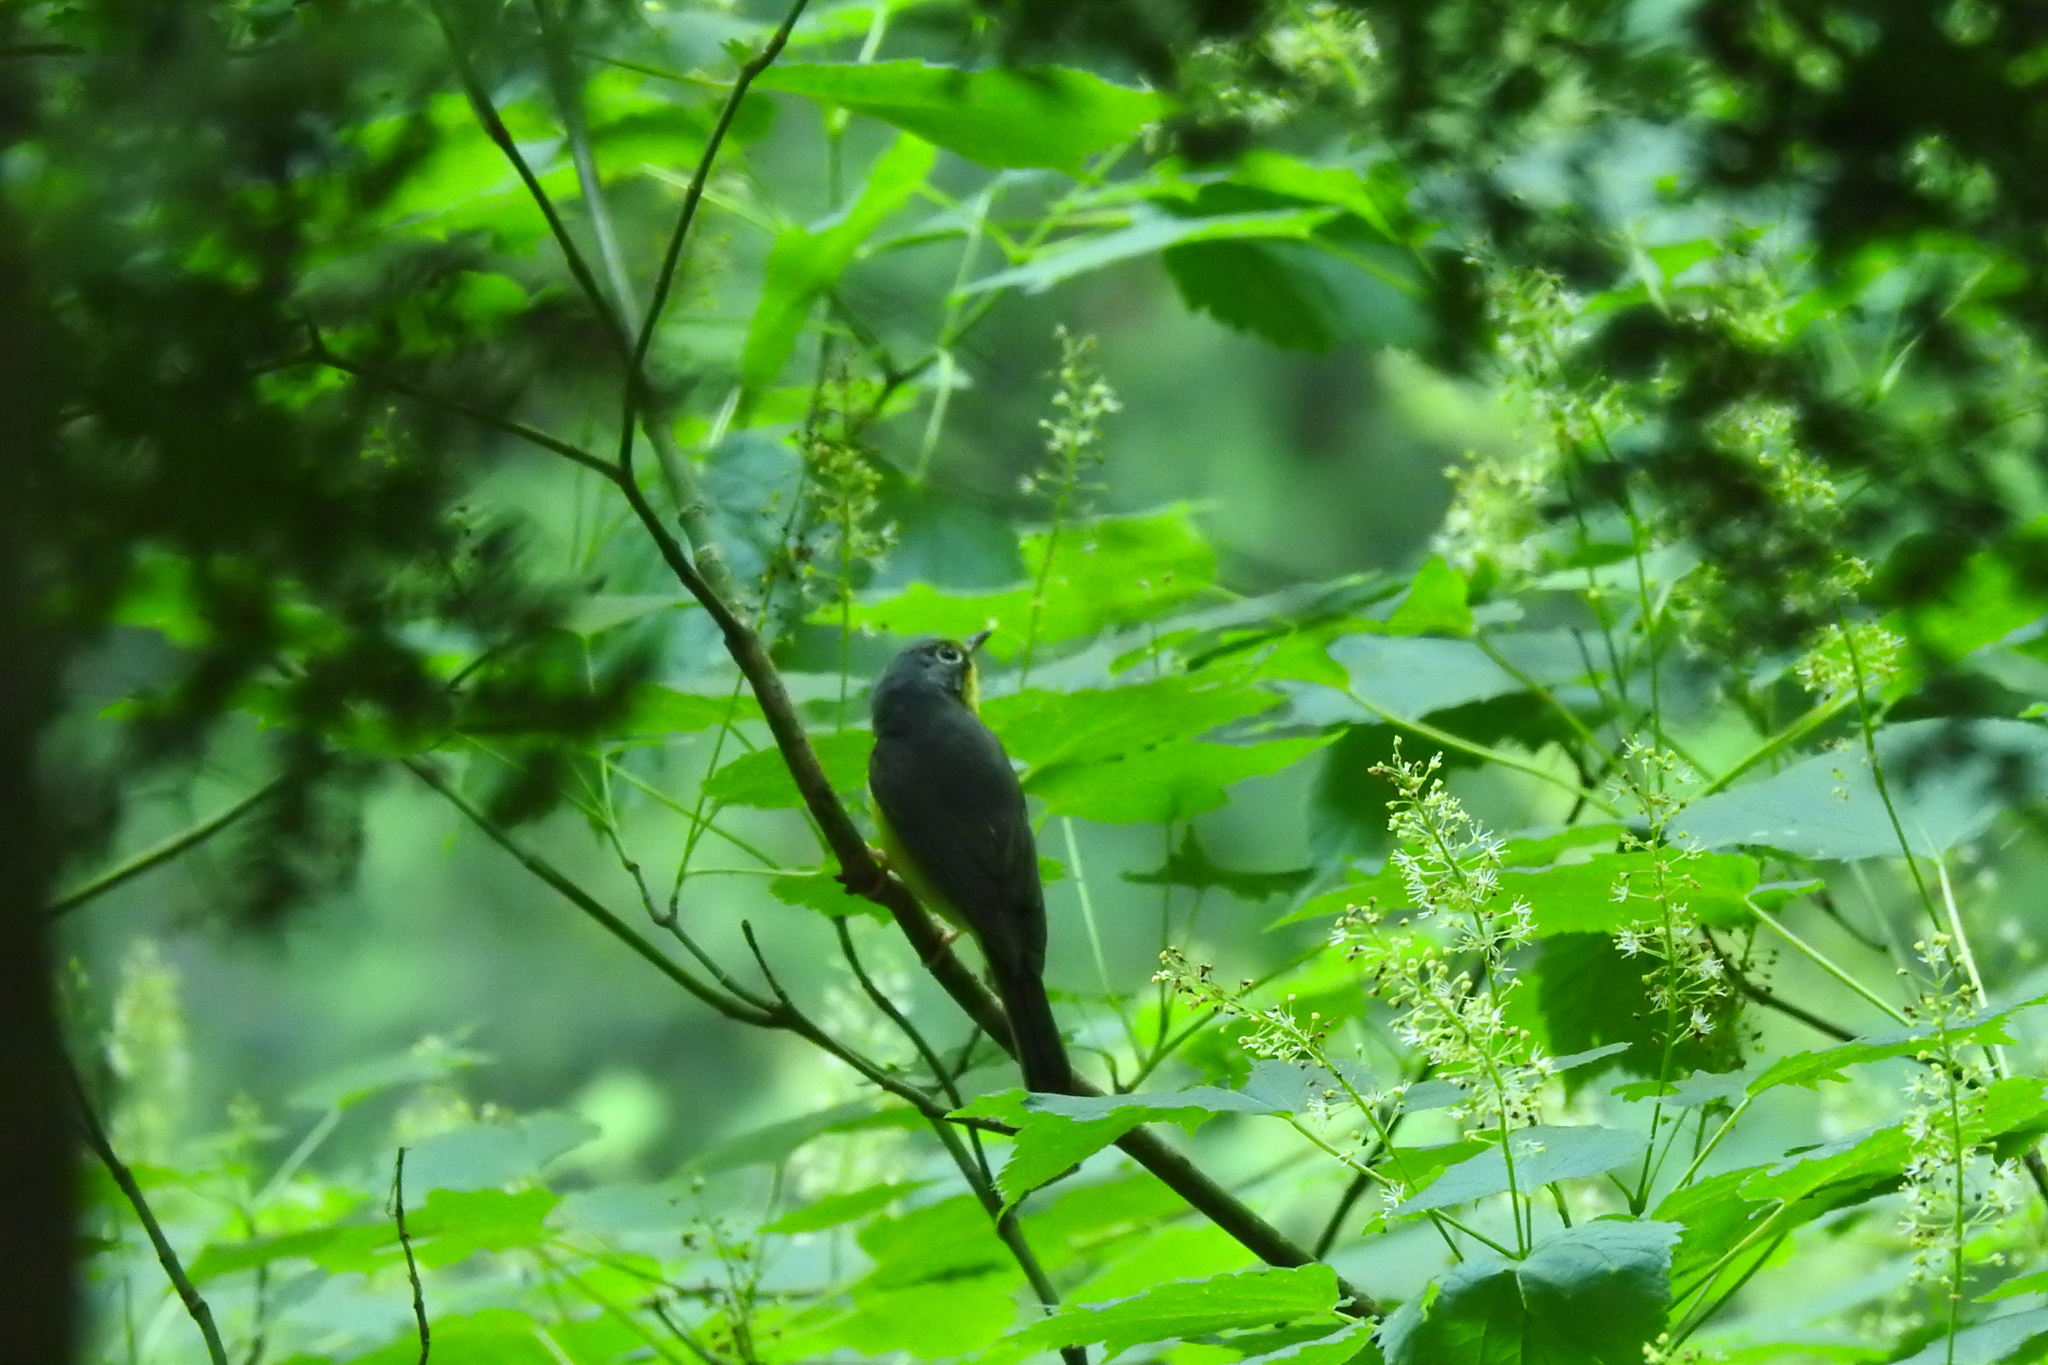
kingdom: Animalia
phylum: Chordata
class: Aves
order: Passeriformes
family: Parulidae
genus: Cardellina
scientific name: Cardellina canadensis
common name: Canada warbler
